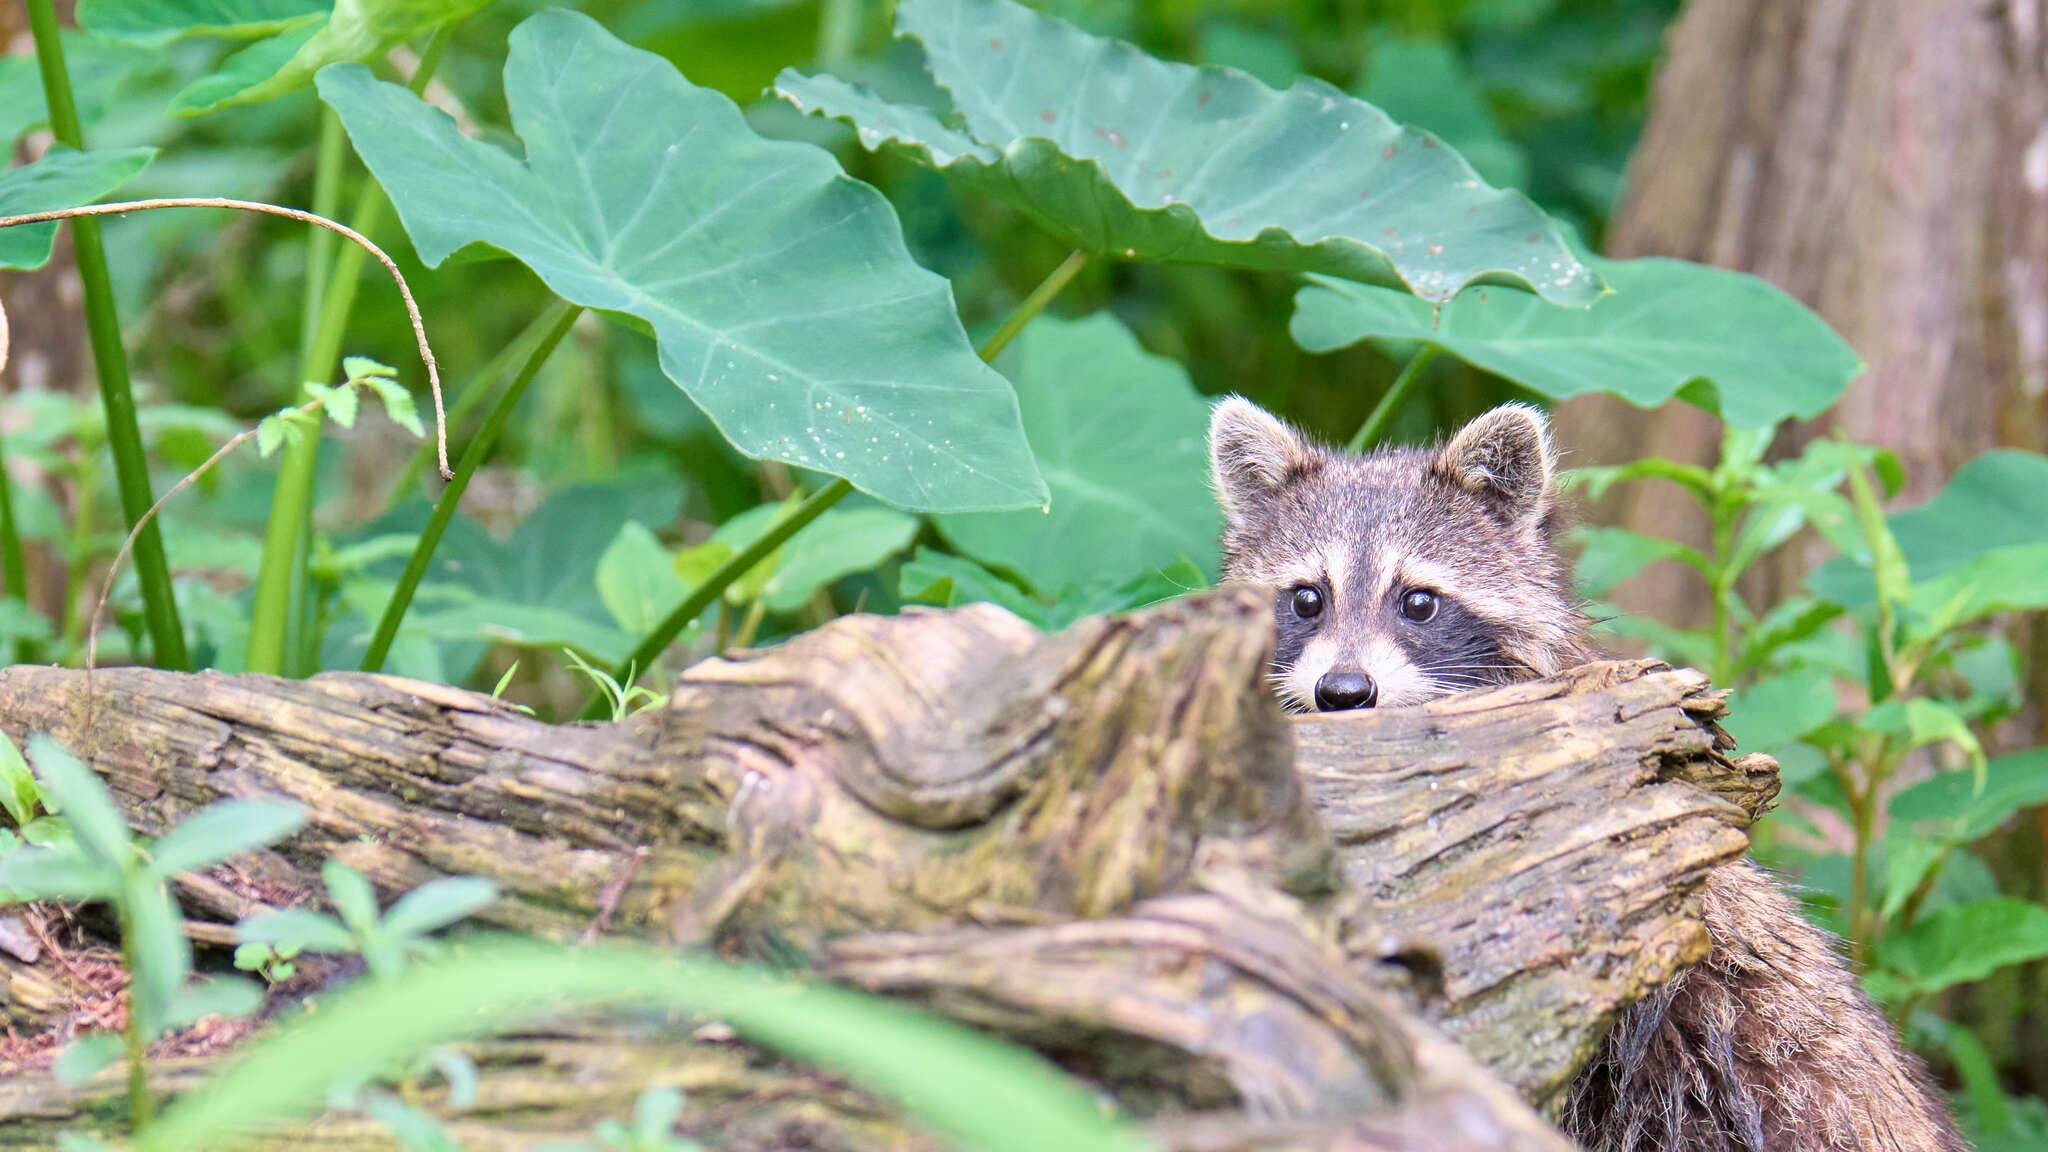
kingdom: Animalia
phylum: Chordata
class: Mammalia
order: Carnivora
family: Procyonidae
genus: Procyon
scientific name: Procyon lotor
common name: Raccoon
